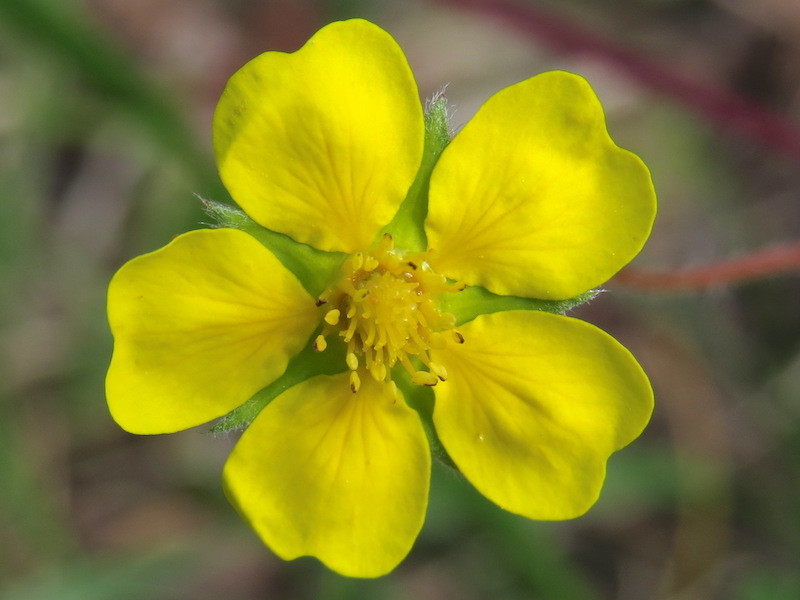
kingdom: Plantae
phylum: Tracheophyta
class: Magnoliopsida
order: Rosales
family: Rosaceae
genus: Potentilla
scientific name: Potentilla simplex
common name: Old field cinquefoil
